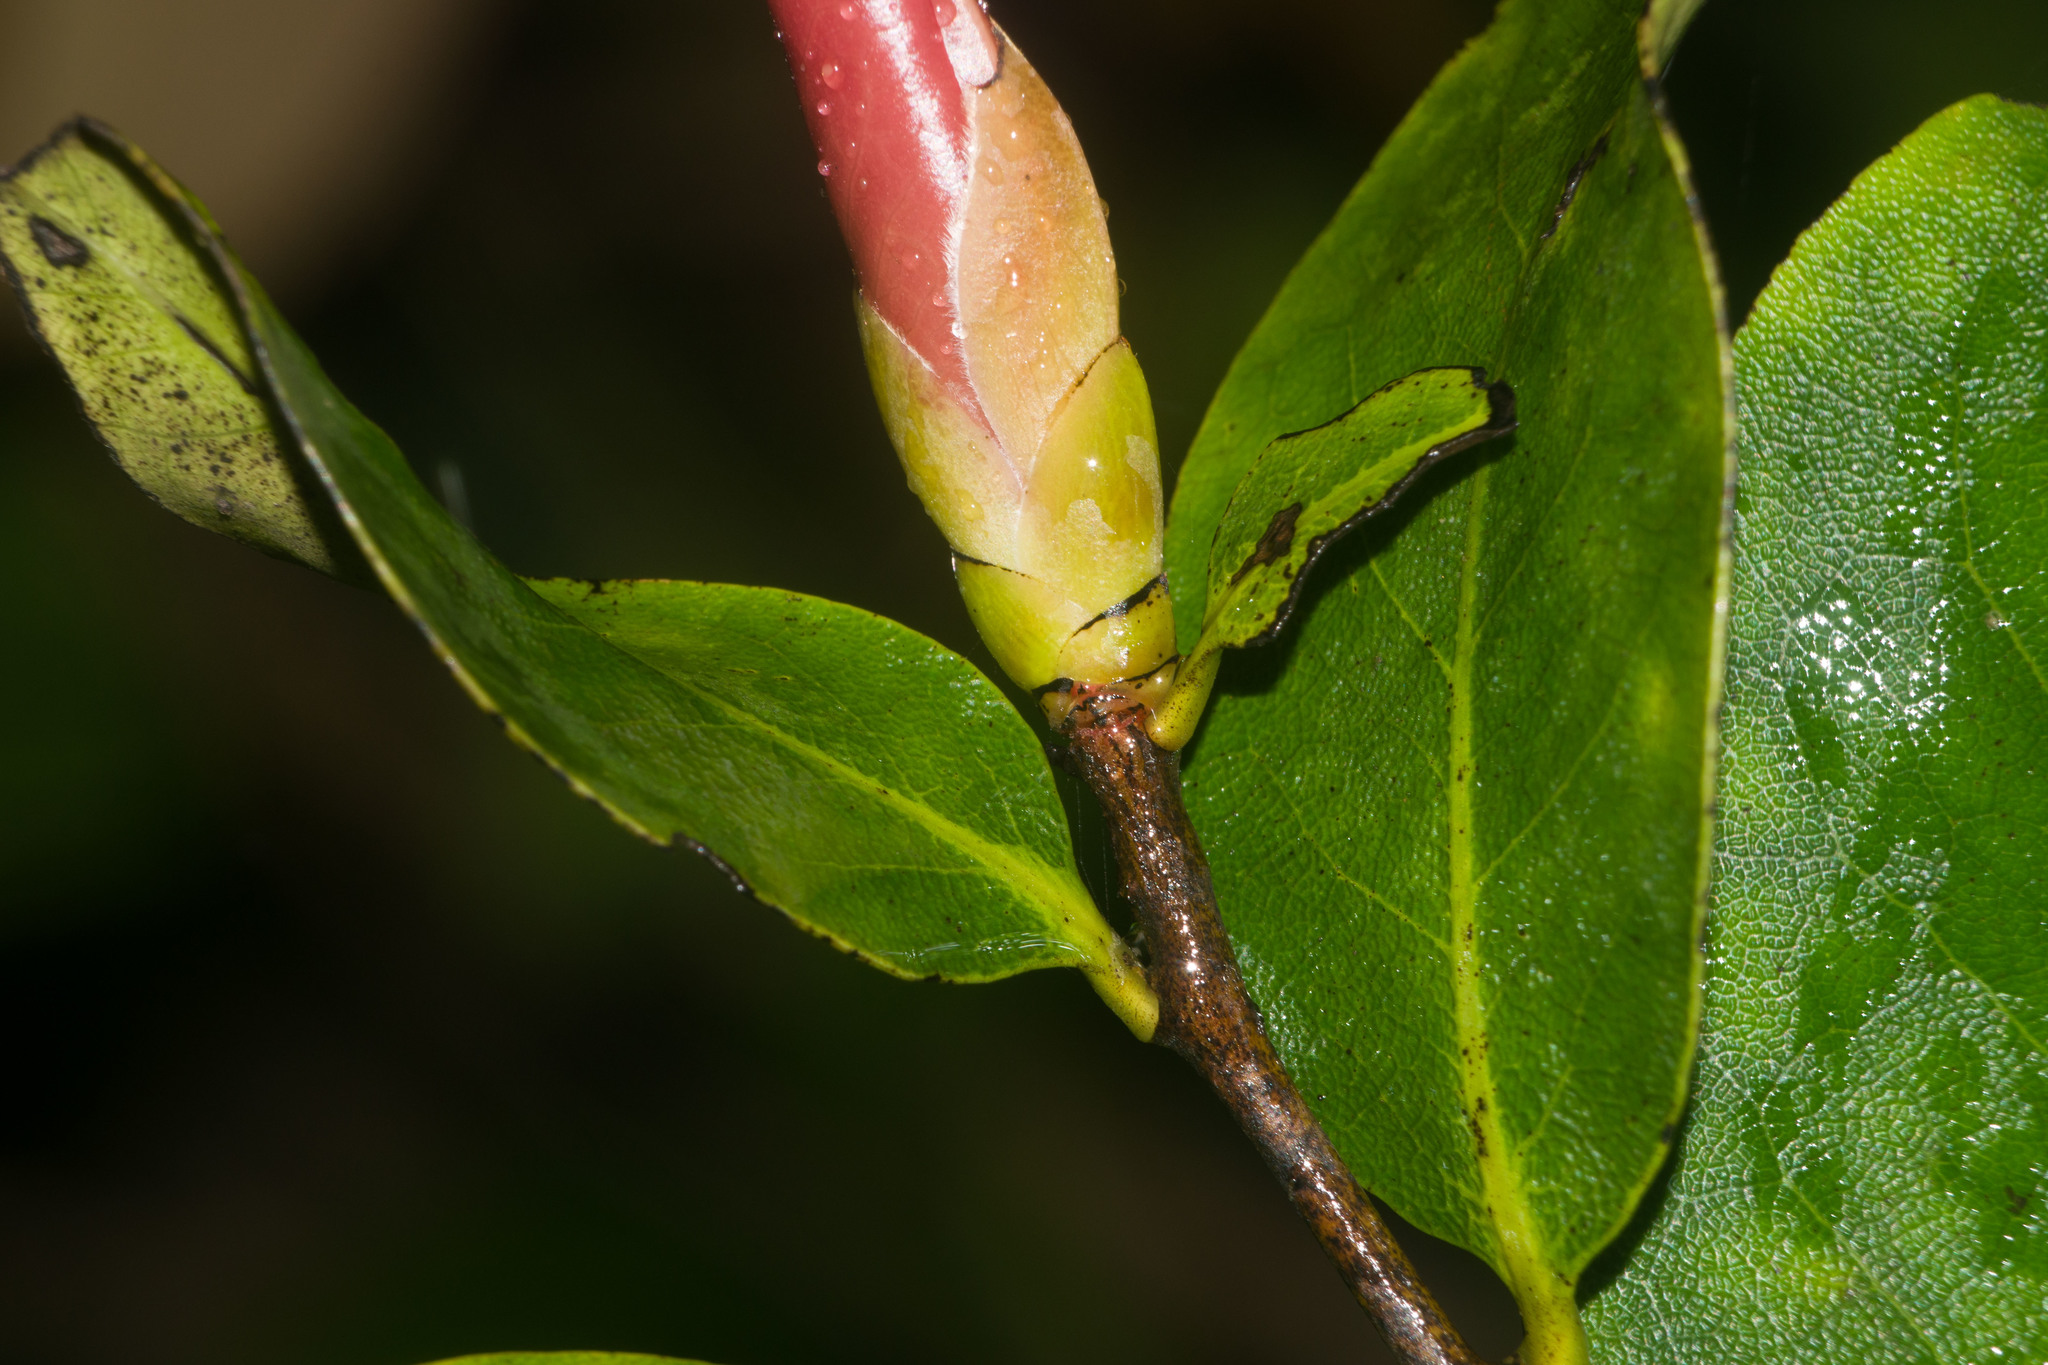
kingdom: Plantae
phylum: Tracheophyta
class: Magnoliopsida
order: Ericales
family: Ebenaceae
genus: Diospyros
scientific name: Diospyros hillebrandii
